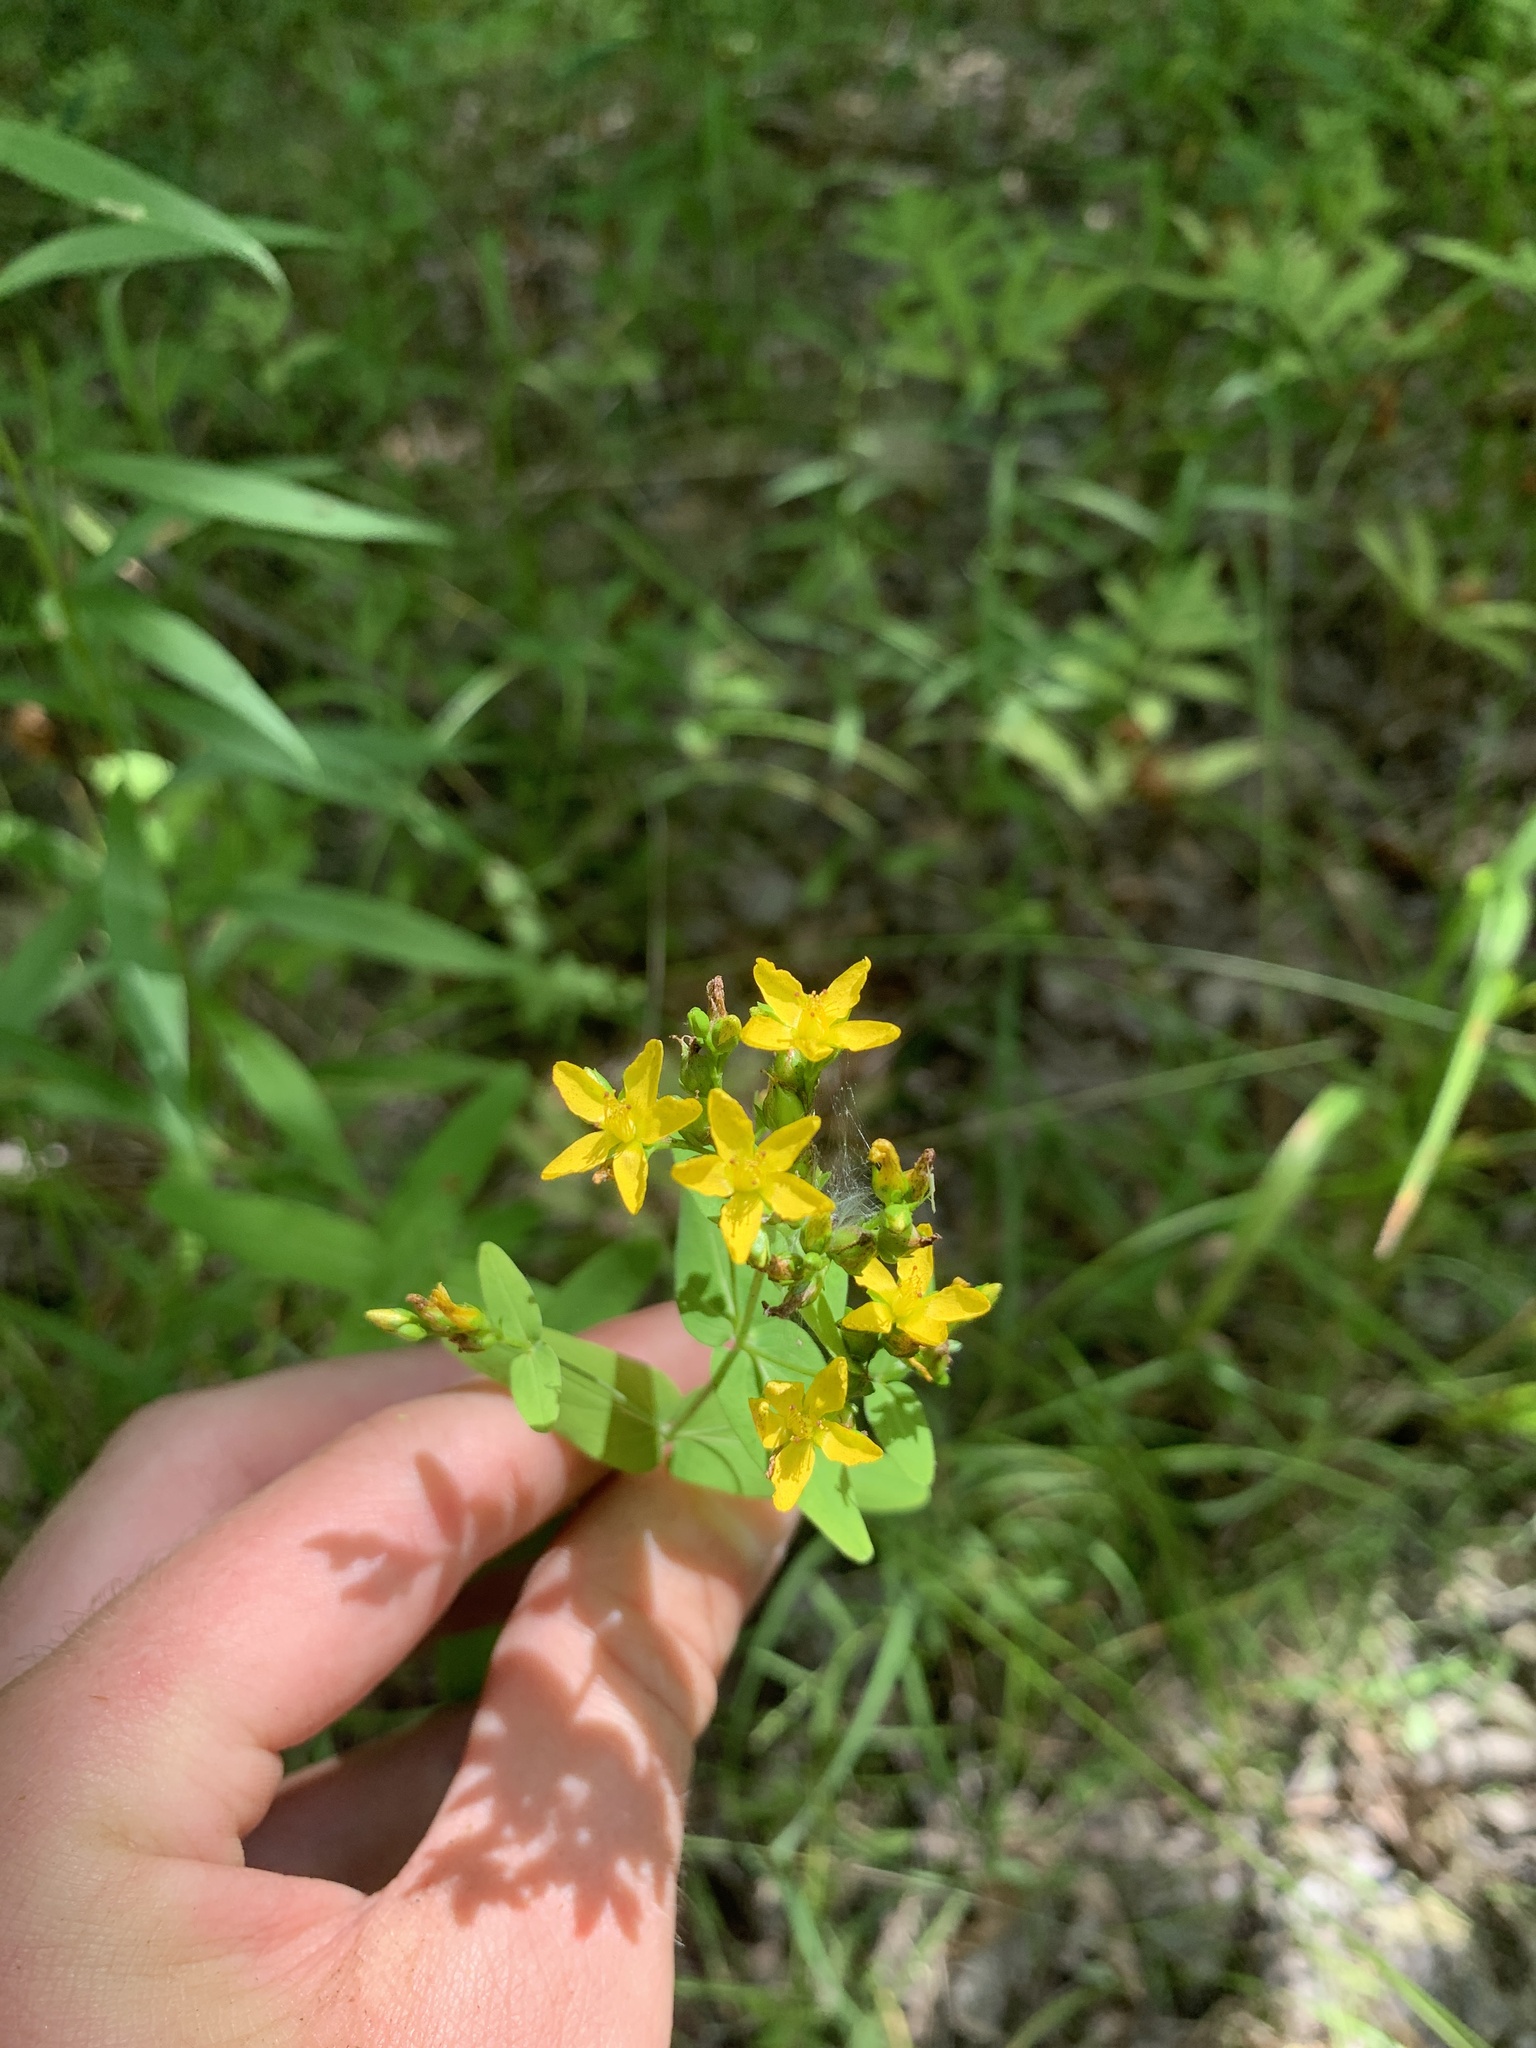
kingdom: Plantae
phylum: Tracheophyta
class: Magnoliopsida
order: Malpighiales
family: Hypericaceae
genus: Hypericum
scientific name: Hypericum punctatum
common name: Spotted st. john's-wort
